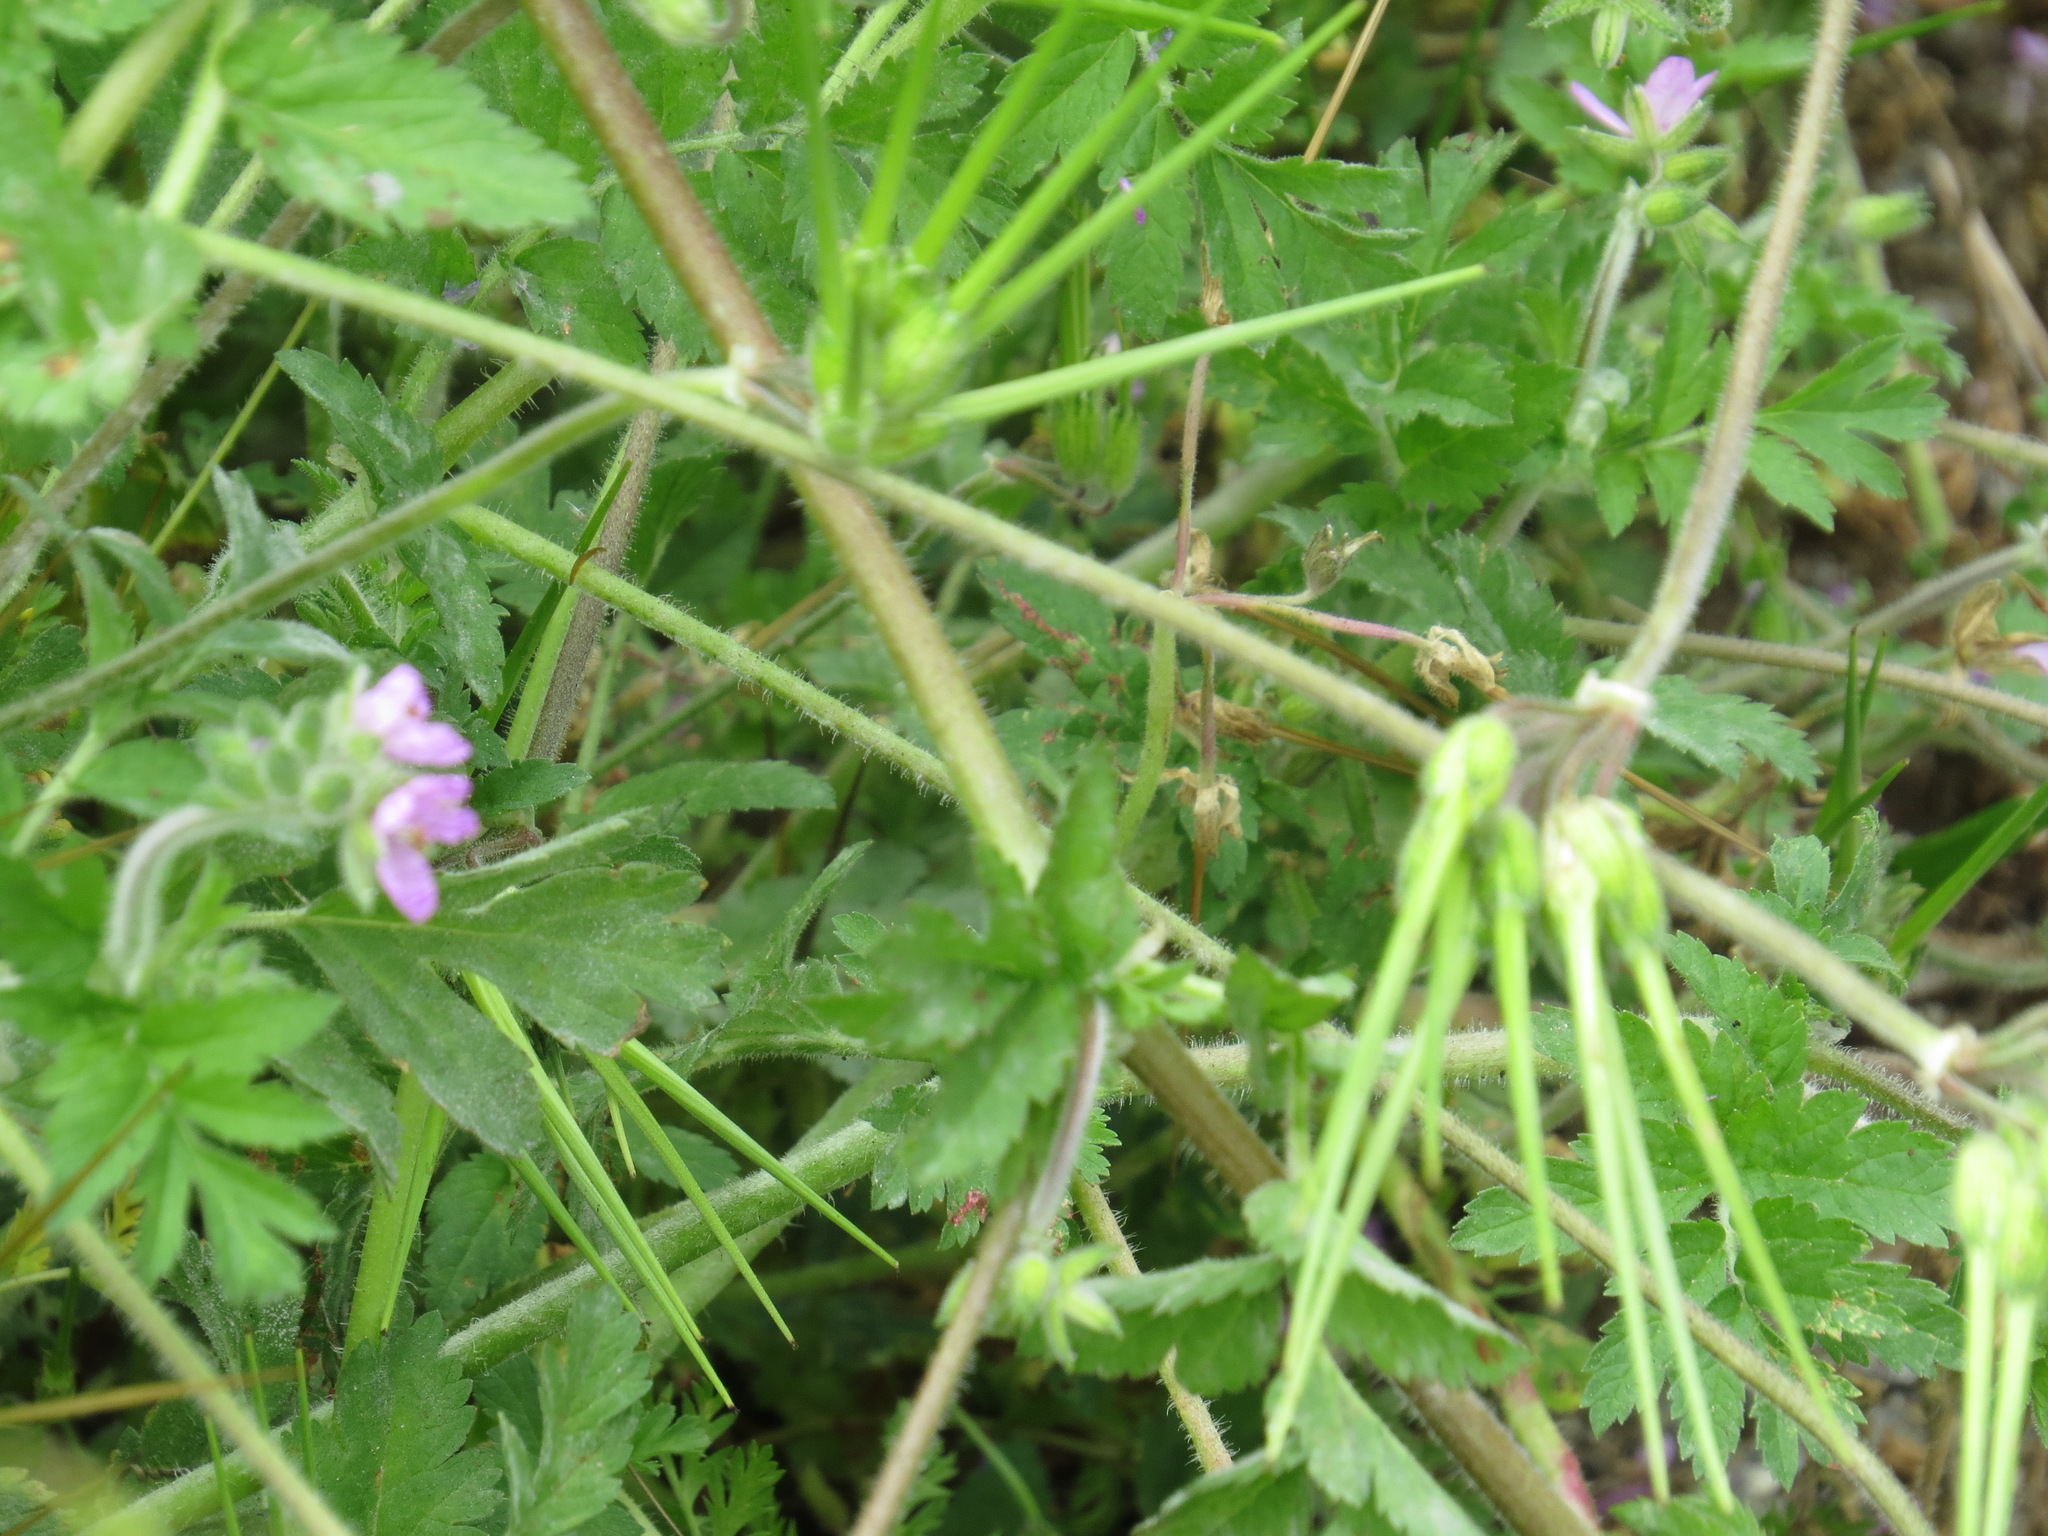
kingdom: Plantae
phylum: Tracheophyta
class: Magnoliopsida
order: Geraniales
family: Geraniaceae
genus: Erodium
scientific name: Erodium moschatum
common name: Musk stork's-bill
